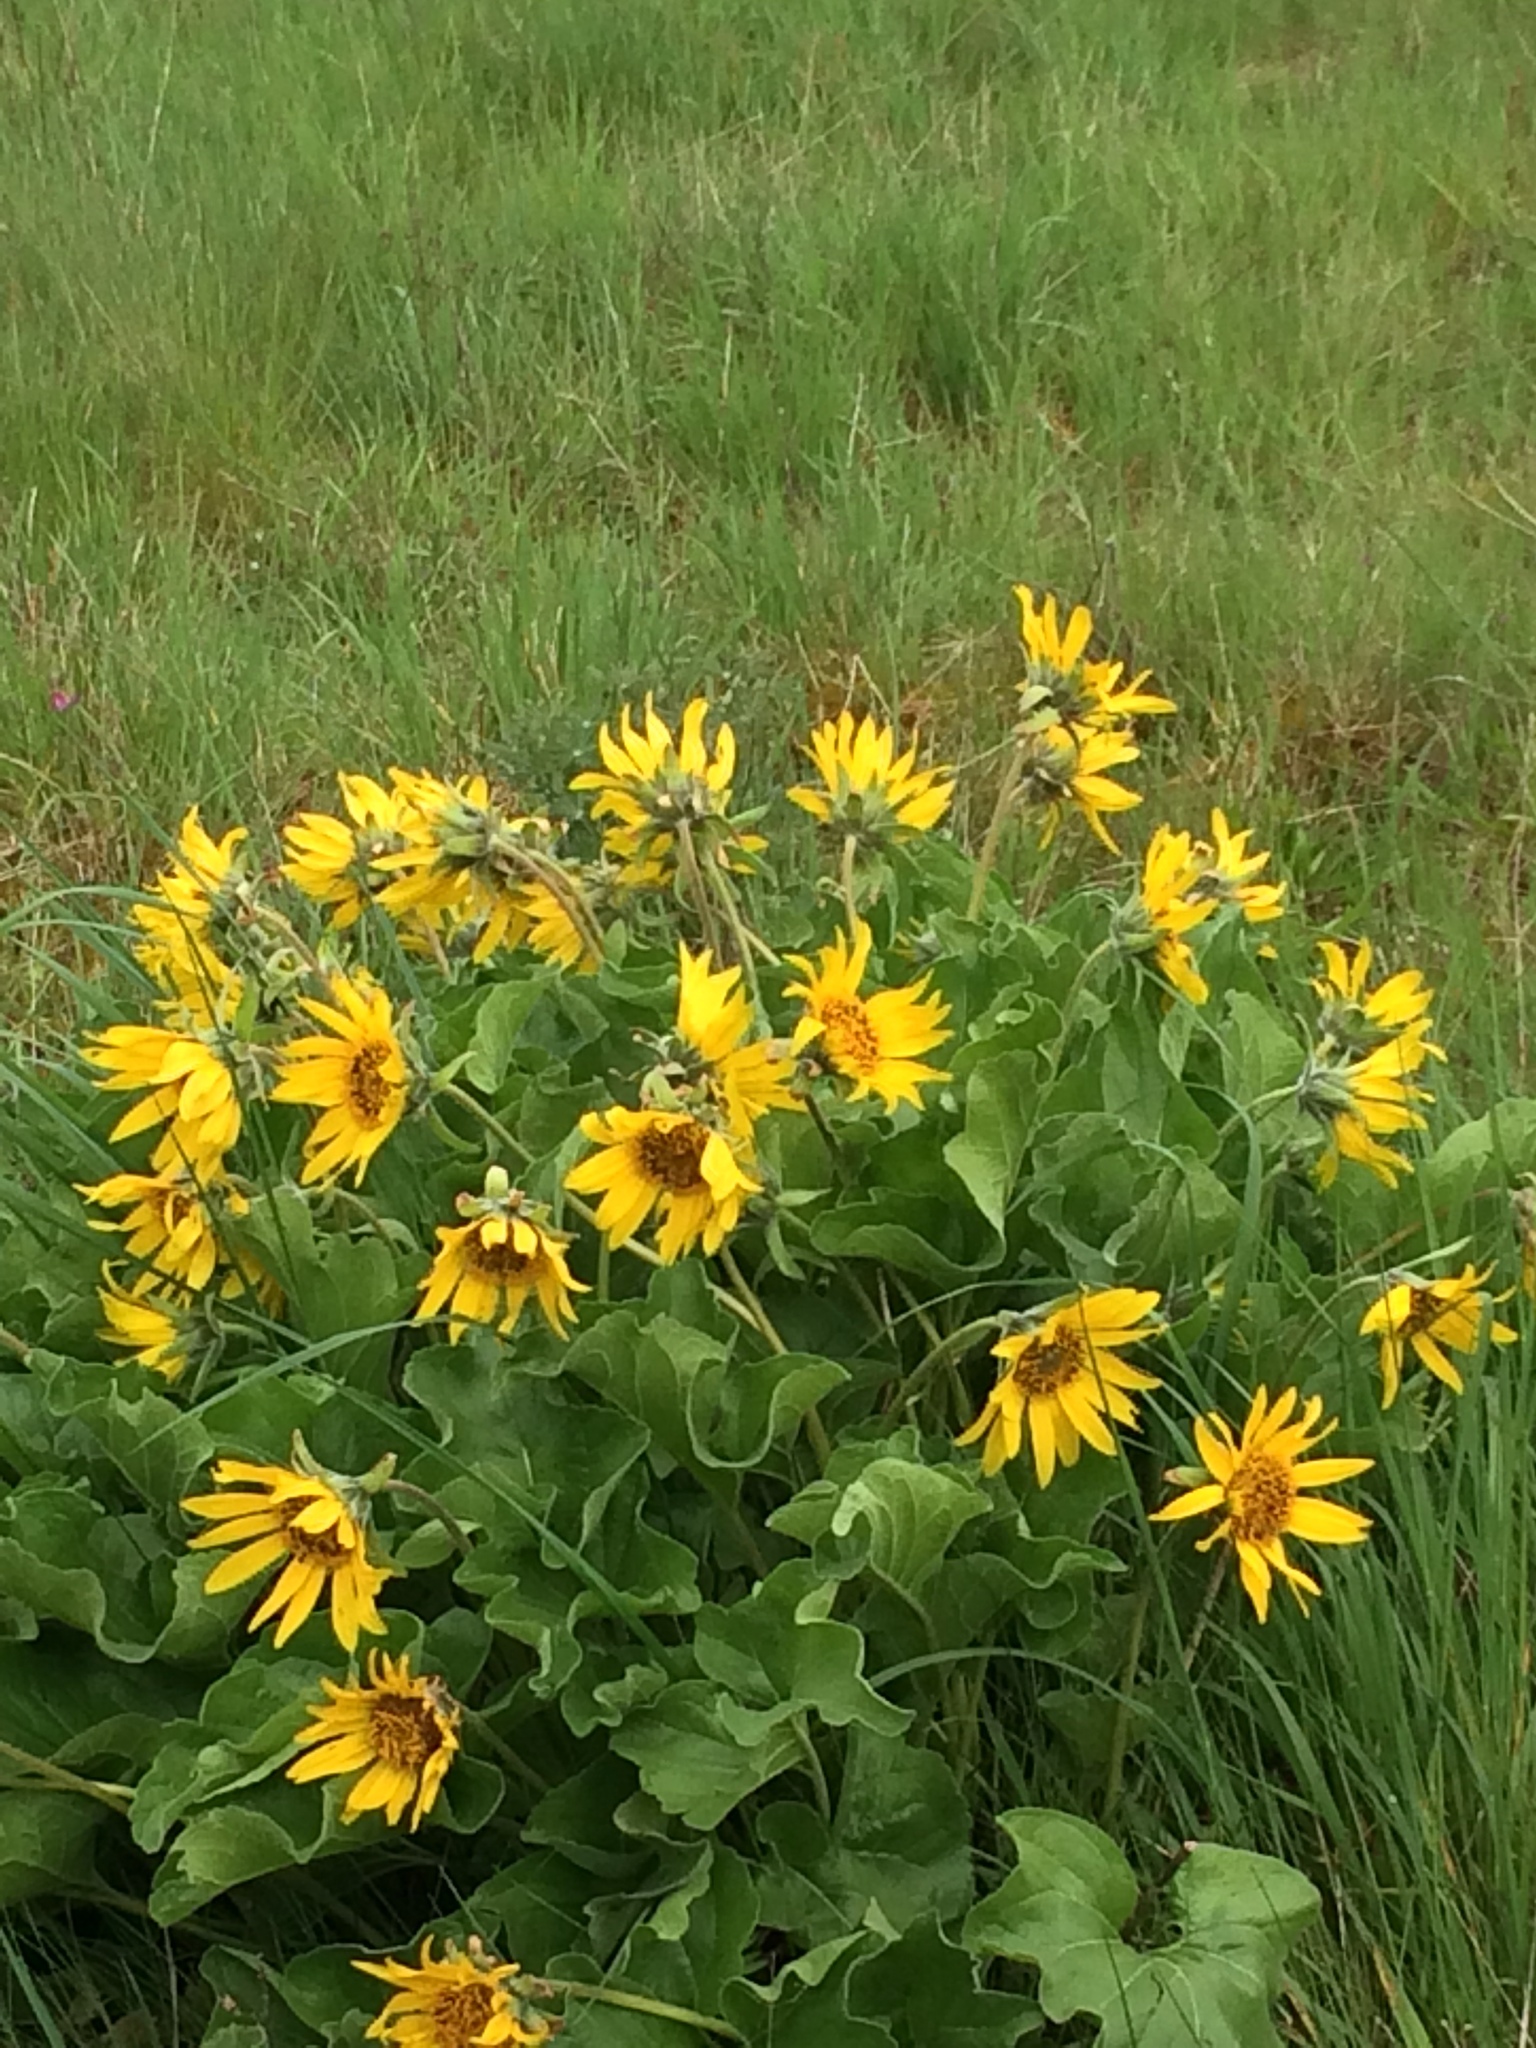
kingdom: Plantae
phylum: Tracheophyta
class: Magnoliopsida
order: Asterales
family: Asteraceae
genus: Balsamorhiza
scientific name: Balsamorhiza deltoidea
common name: Deltoid balsamroot
